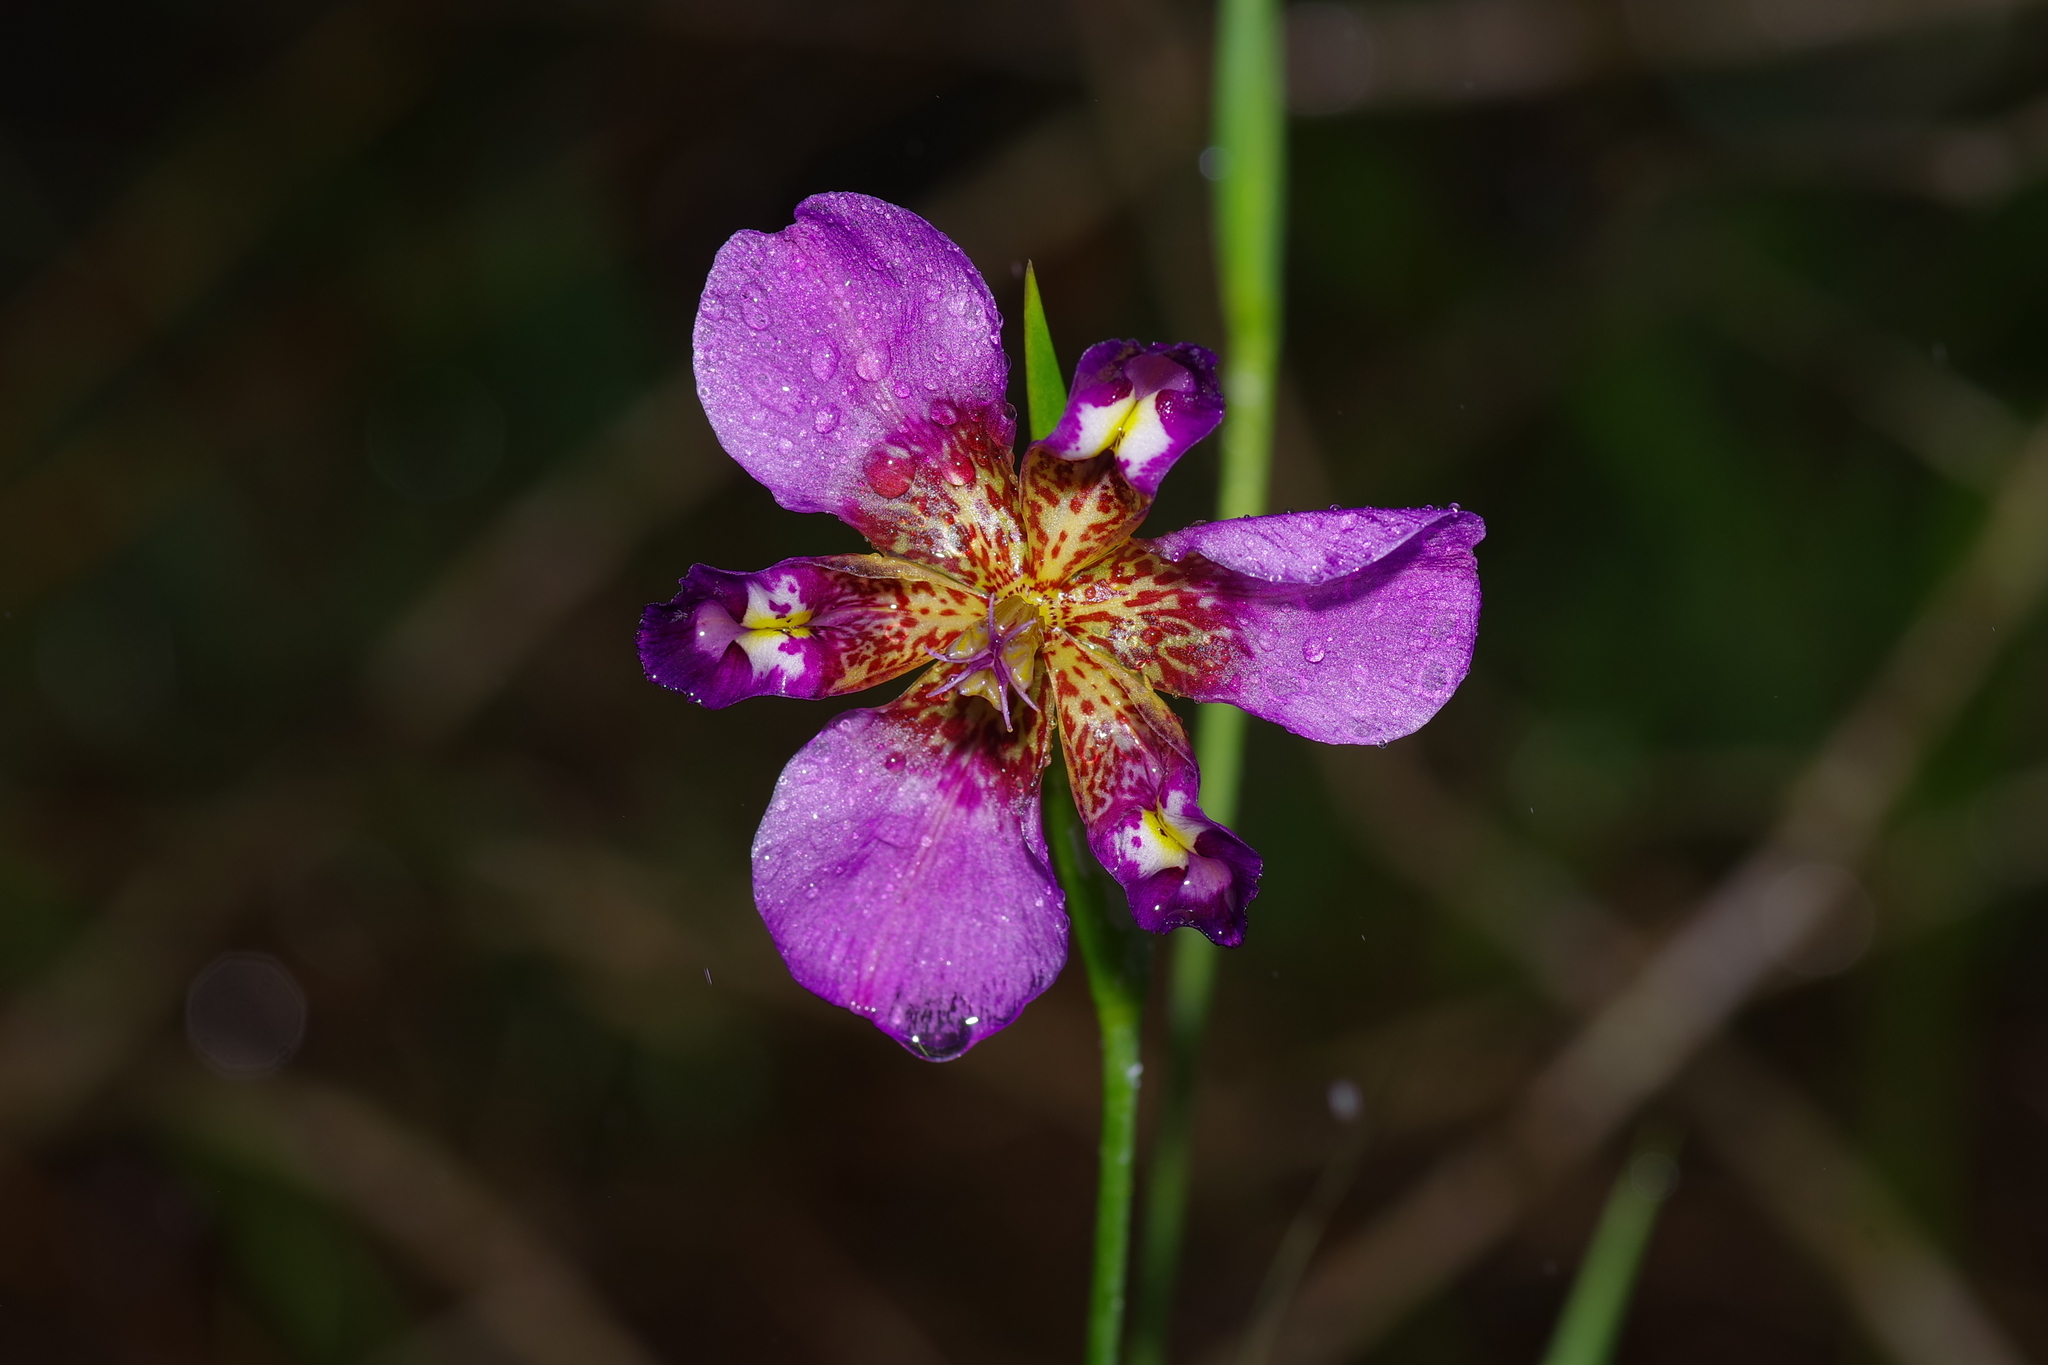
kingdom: Plantae
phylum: Tracheophyta
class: Liliopsida
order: Asparagales
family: Iridaceae
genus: Alophia
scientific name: Alophia drummondii
